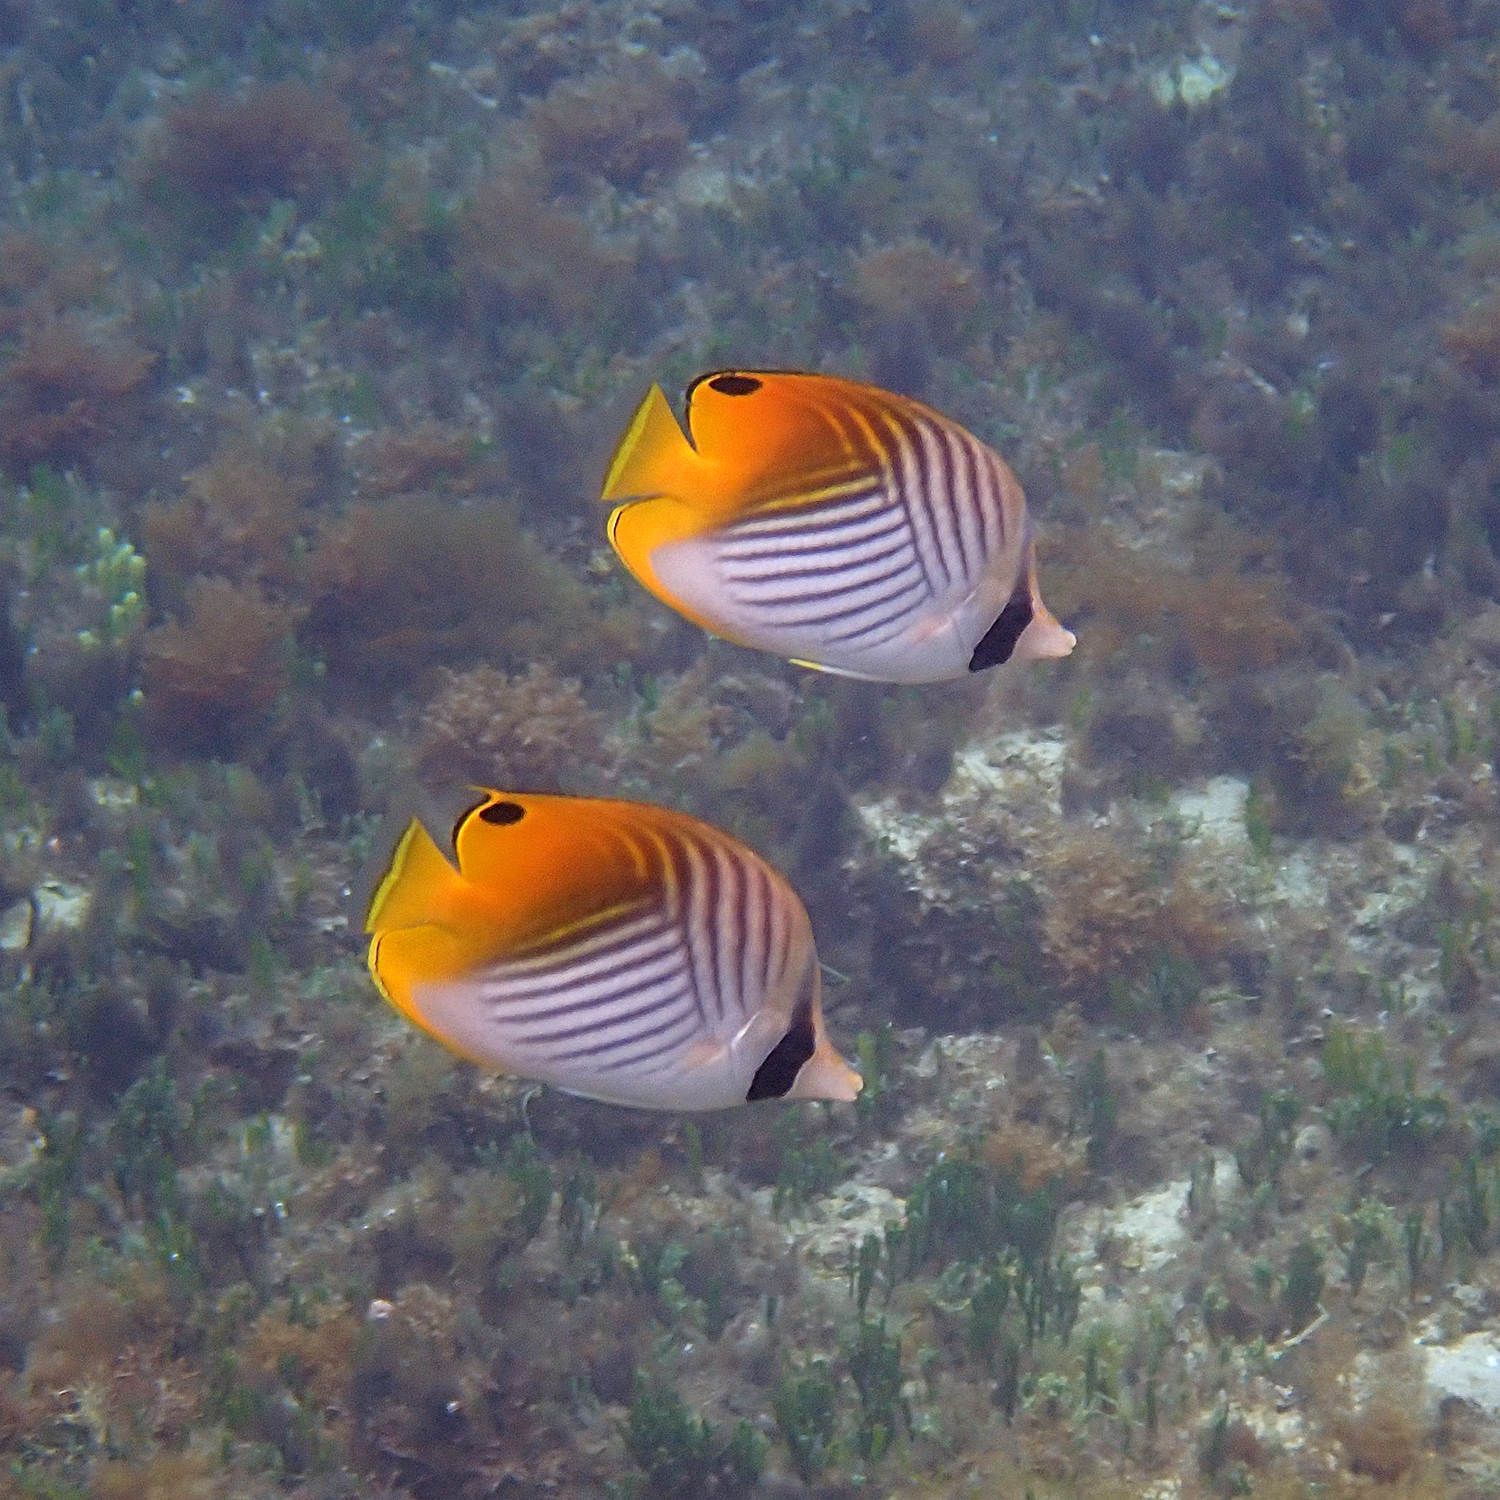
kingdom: Animalia
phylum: Chordata
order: Perciformes
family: Chaetodontidae
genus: Chaetodon
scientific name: Chaetodon auriga
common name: Threadfin butterflyfish
